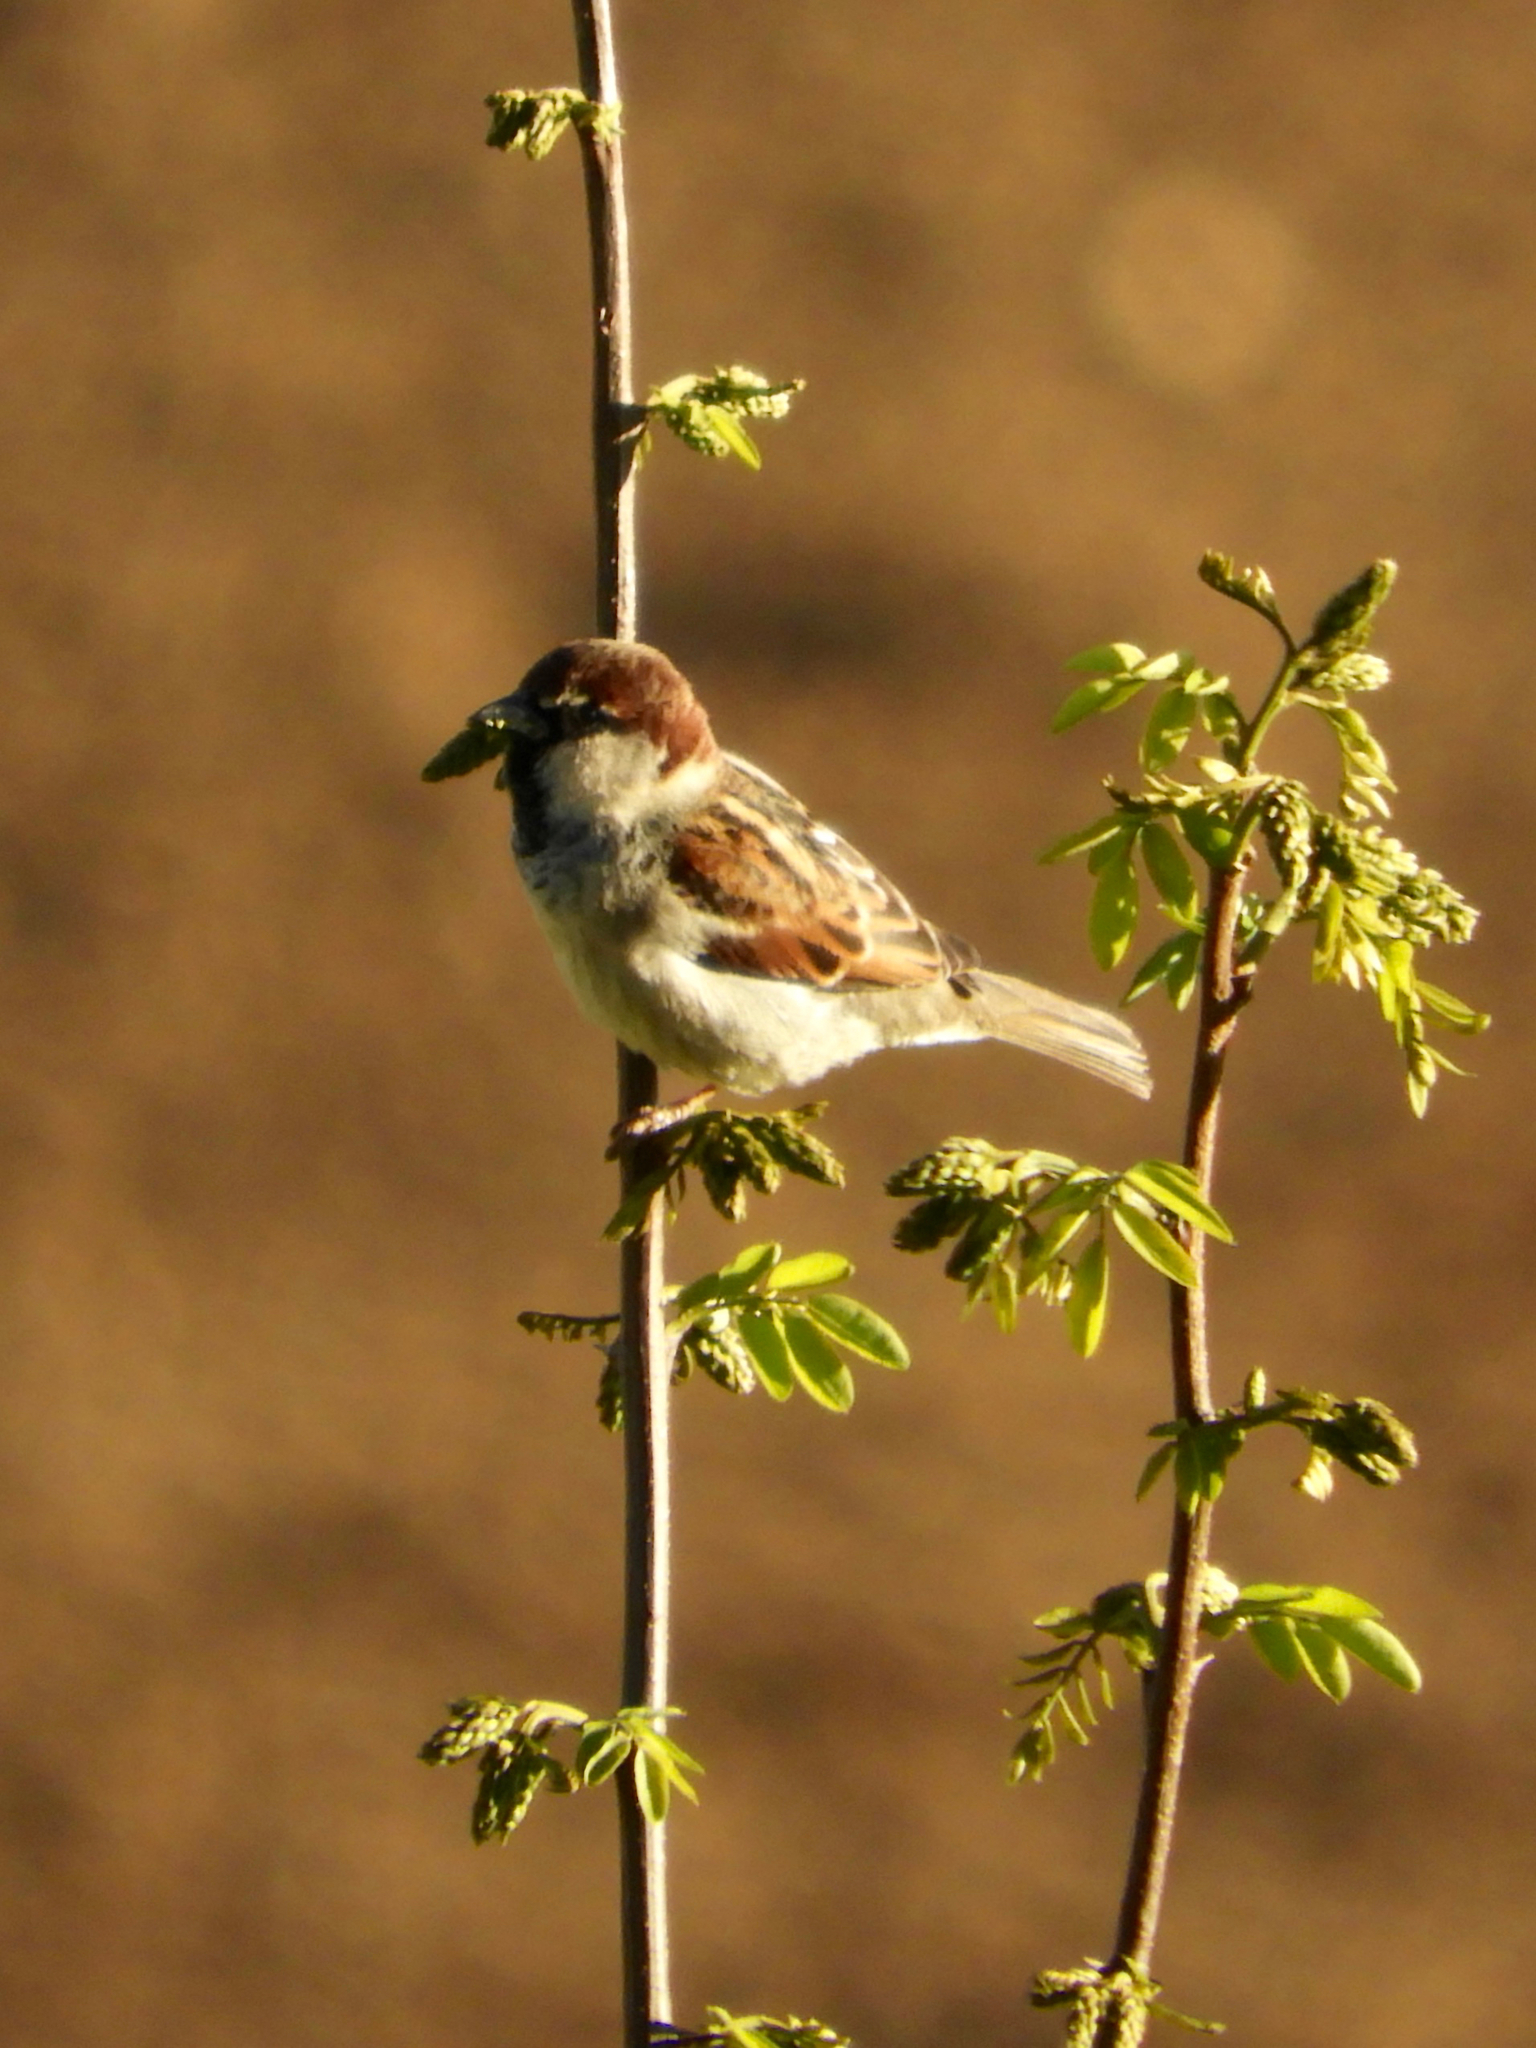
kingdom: Animalia
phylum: Chordata
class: Aves
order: Passeriformes
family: Passeridae
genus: Passer
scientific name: Passer italiae
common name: Italian sparrow
